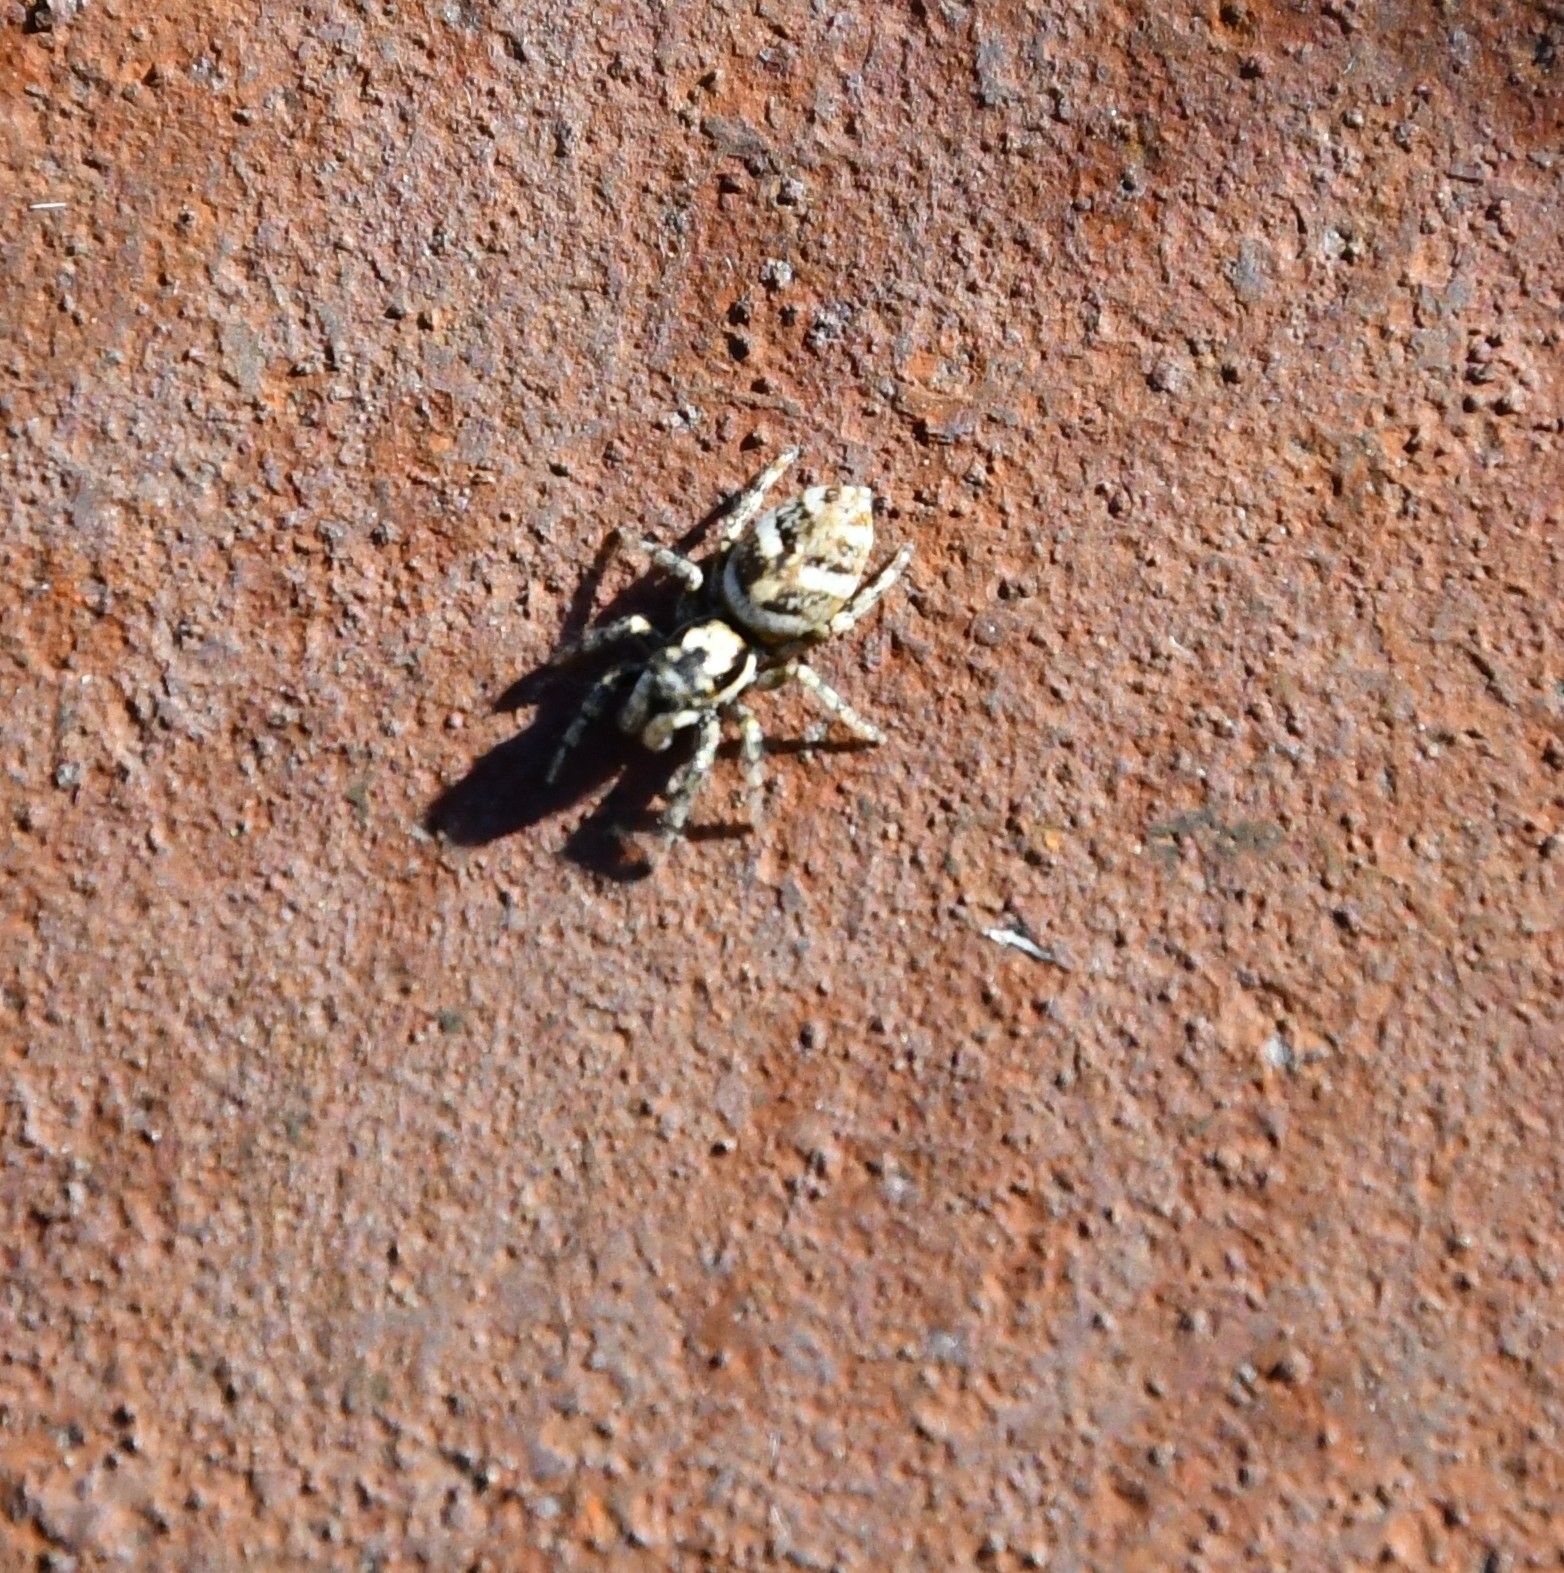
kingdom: Animalia
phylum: Arthropoda
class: Arachnida
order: Araneae
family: Salticidae
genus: Salticus
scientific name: Salticus scenicus
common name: Zebra jumper
